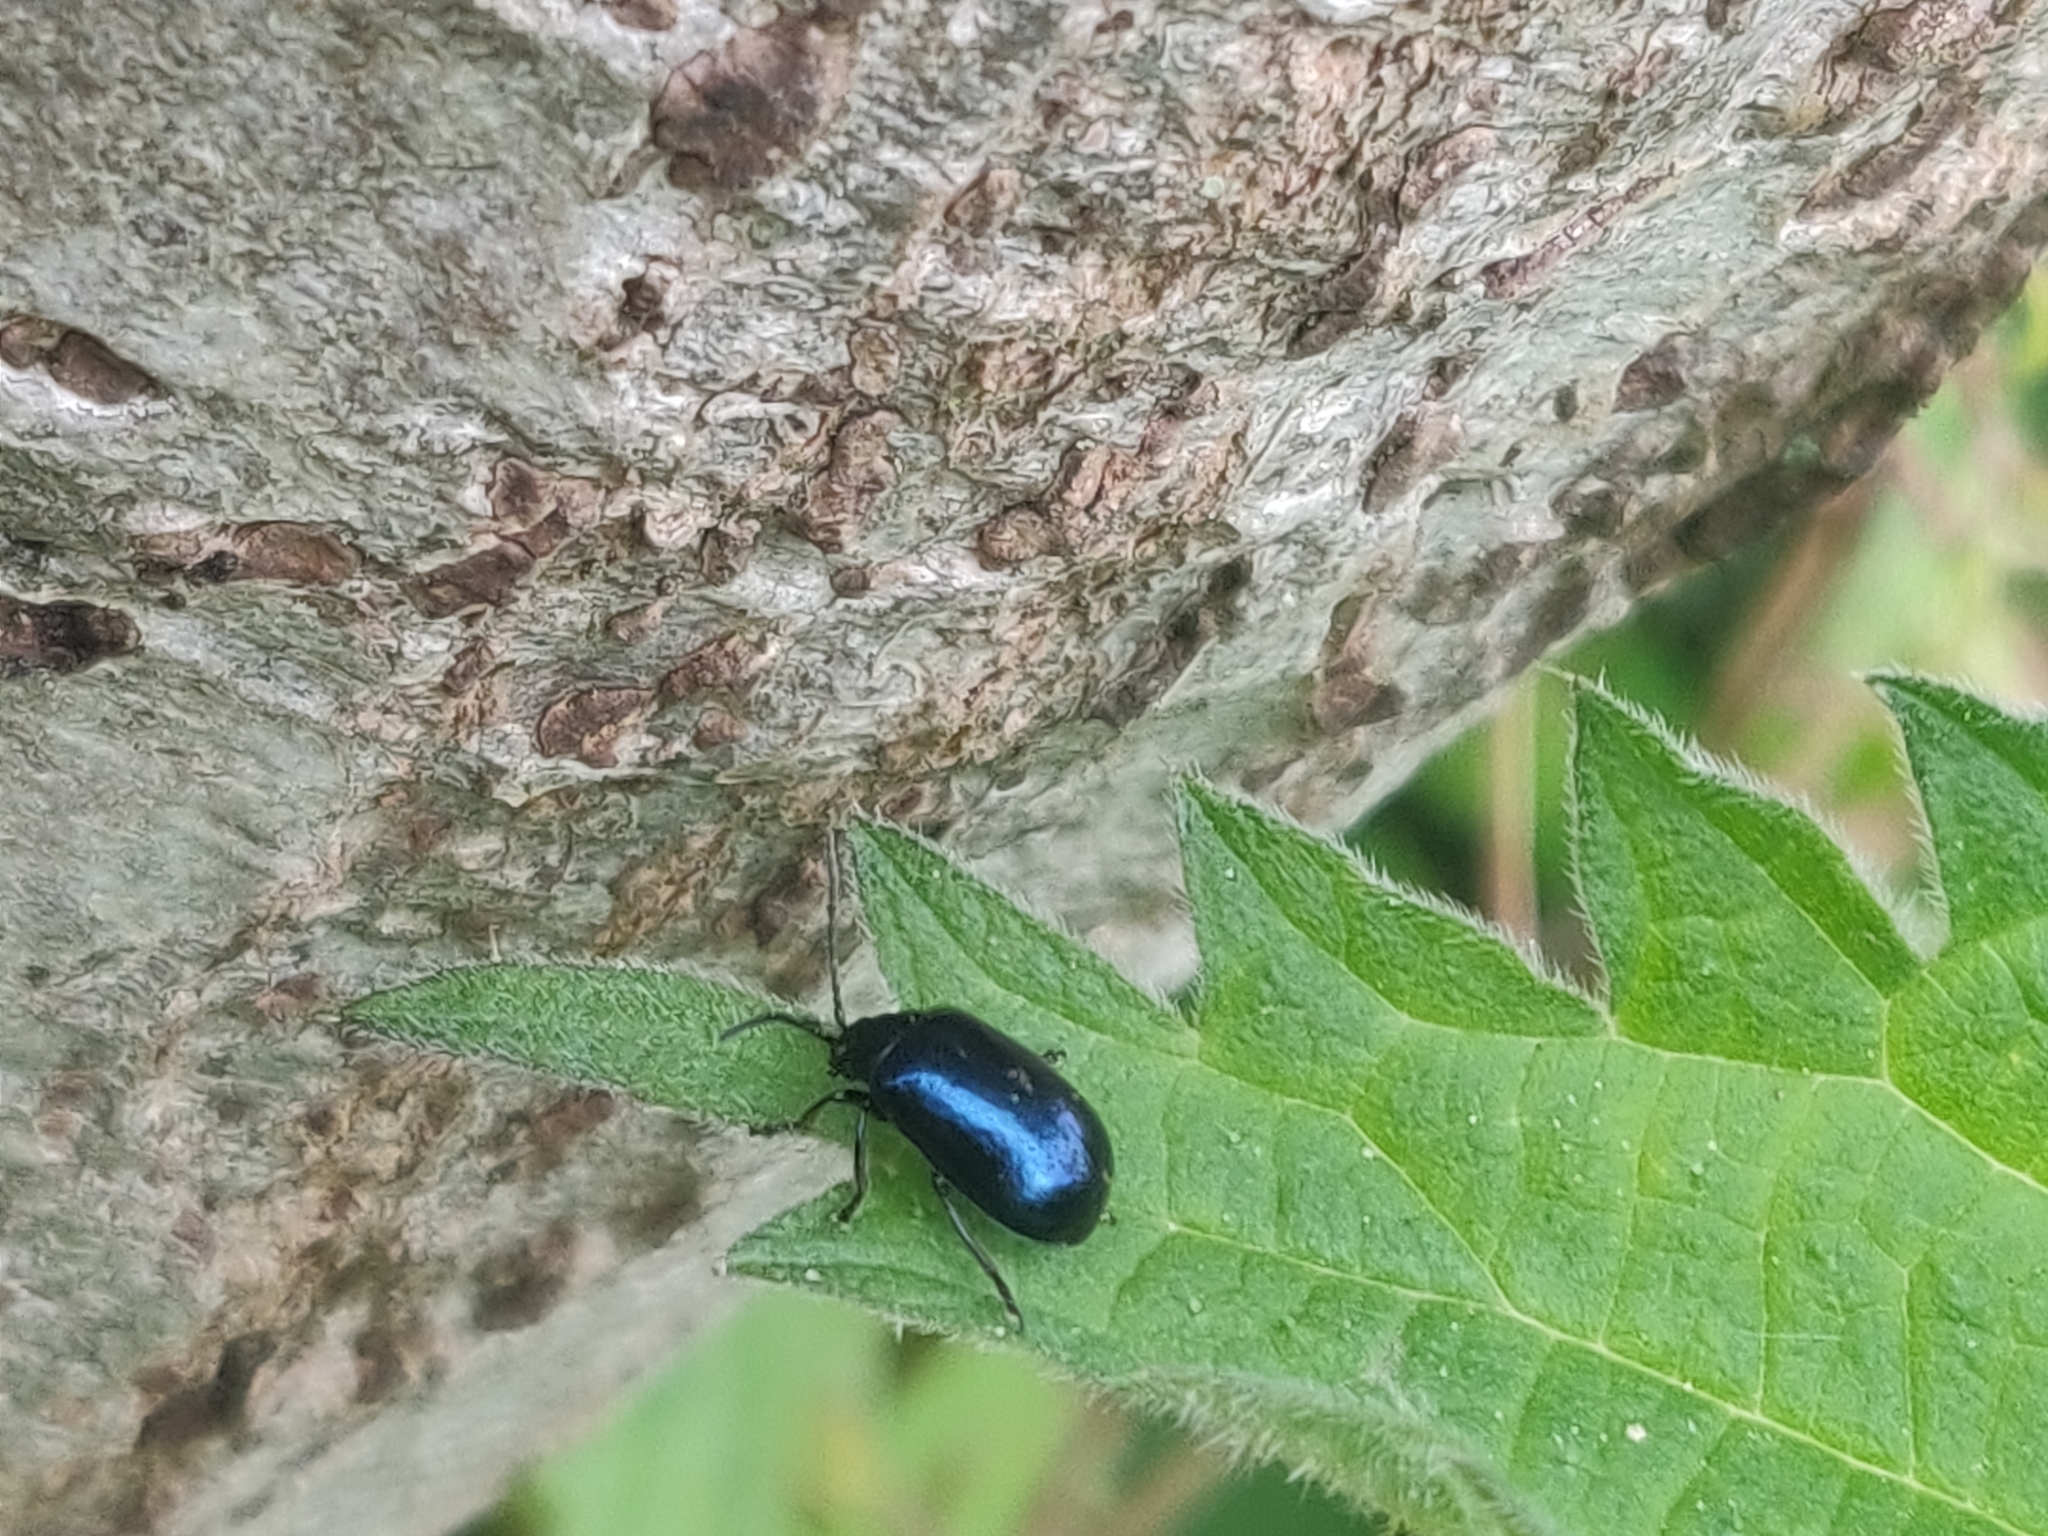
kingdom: Animalia
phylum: Arthropoda
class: Insecta
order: Coleoptera
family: Chrysomelidae
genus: Agelastica
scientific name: Agelastica alni
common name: Alder leaf beetle
